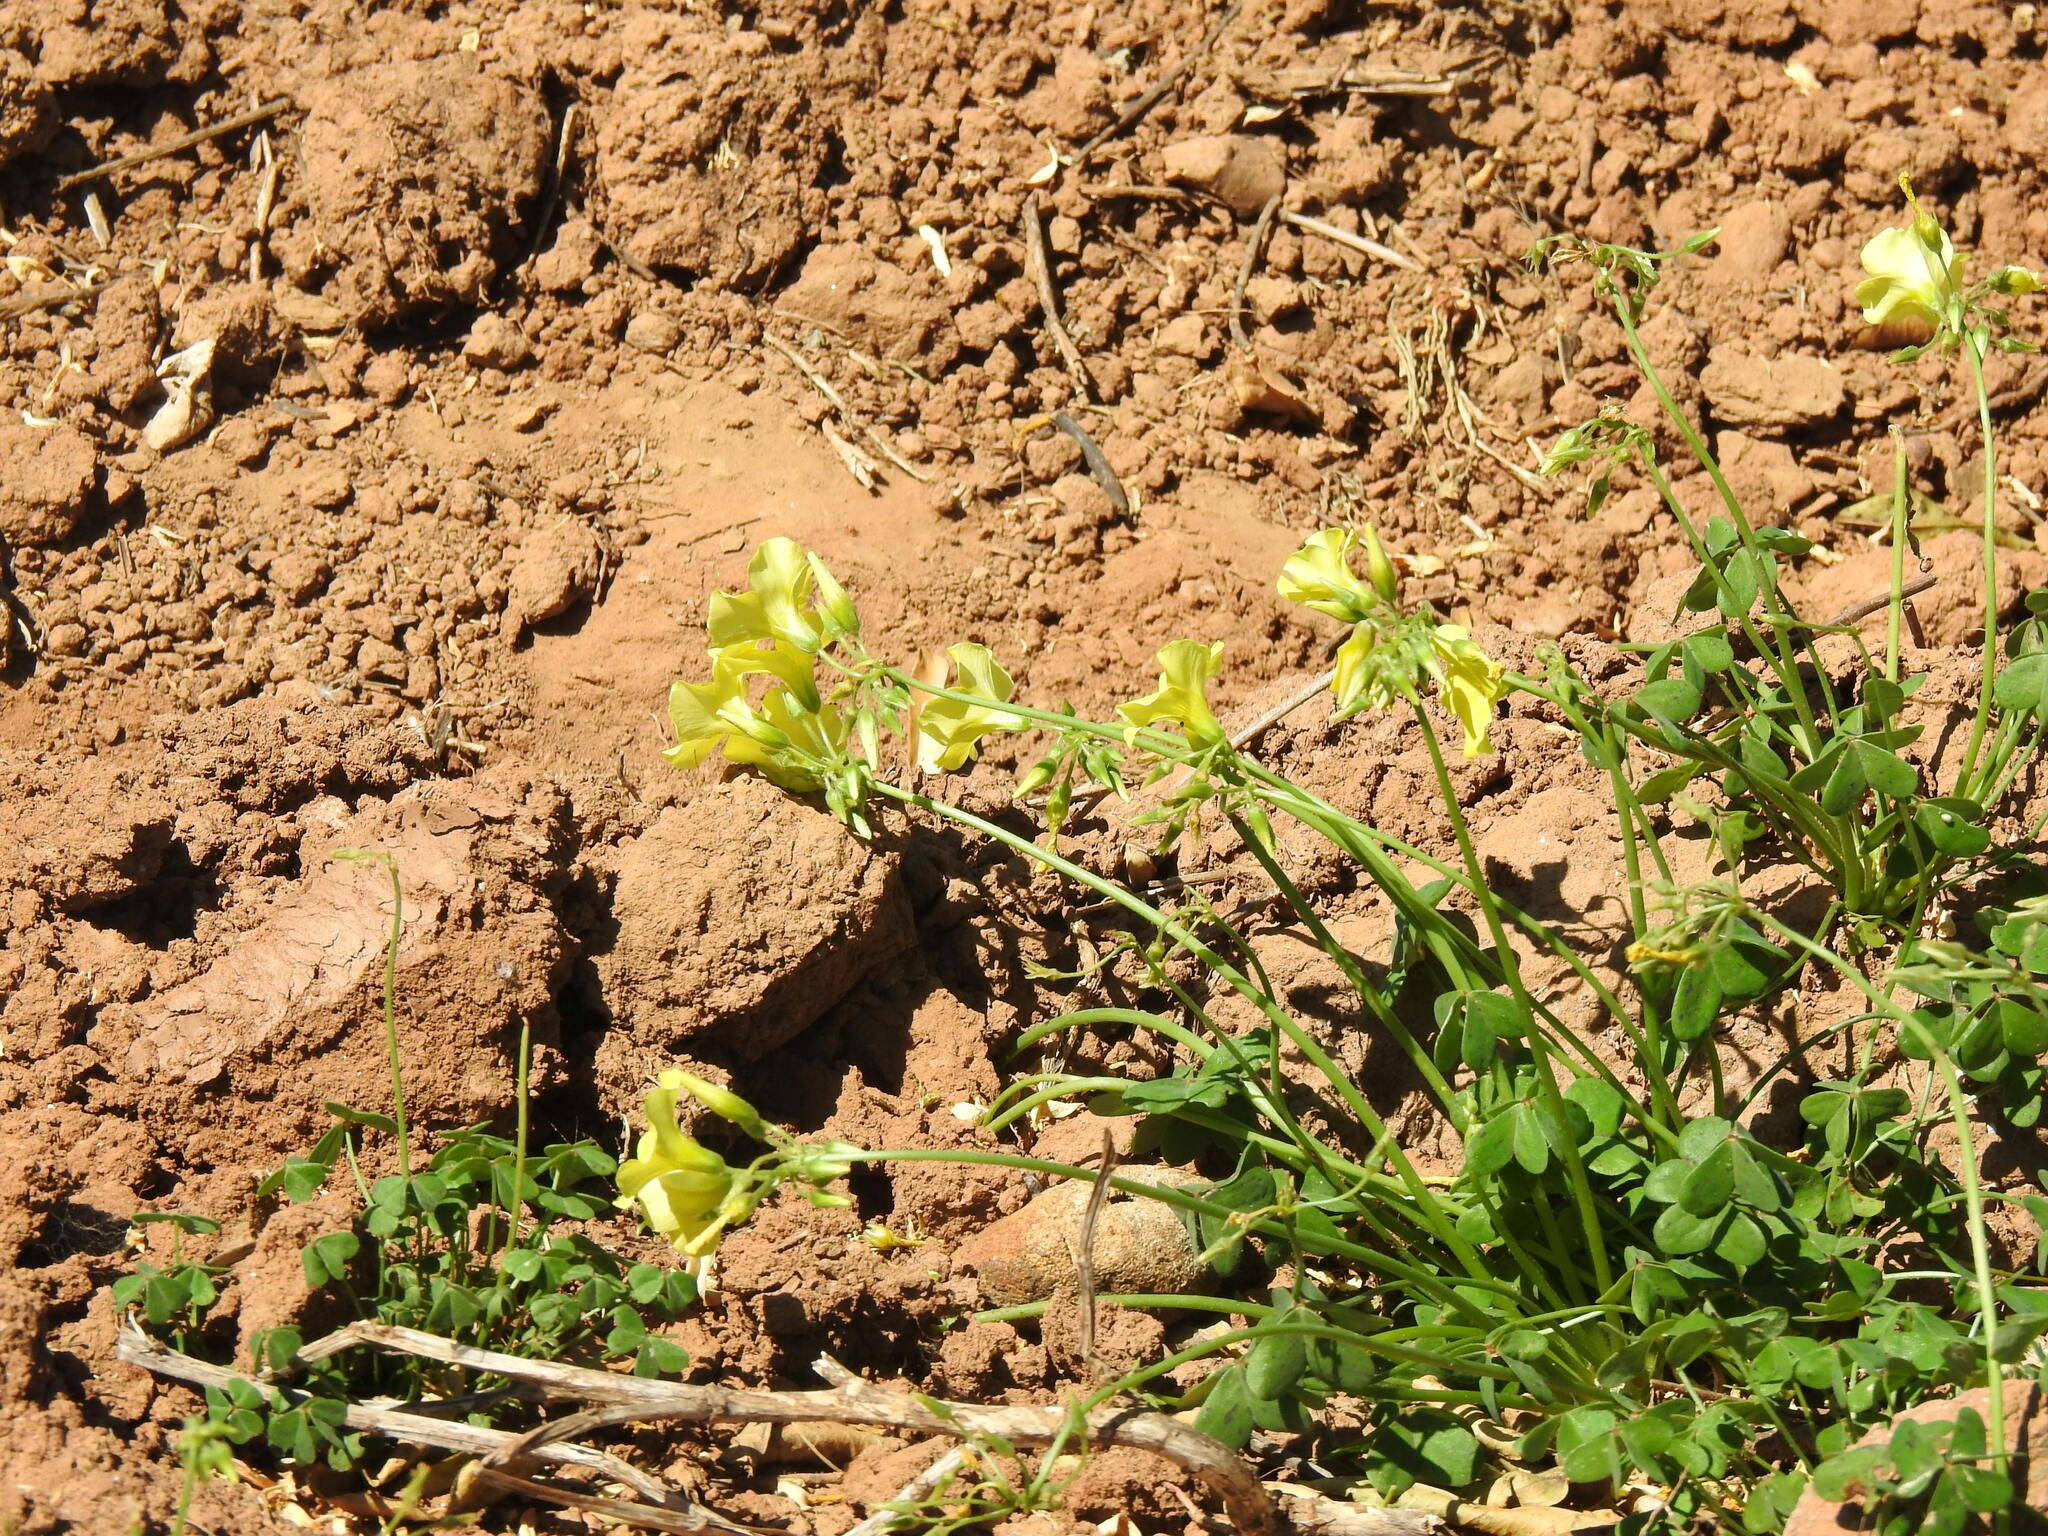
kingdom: Plantae
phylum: Tracheophyta
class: Magnoliopsida
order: Oxalidales
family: Oxalidaceae
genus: Oxalis
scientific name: Oxalis pes-caprae
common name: Bermuda-buttercup
